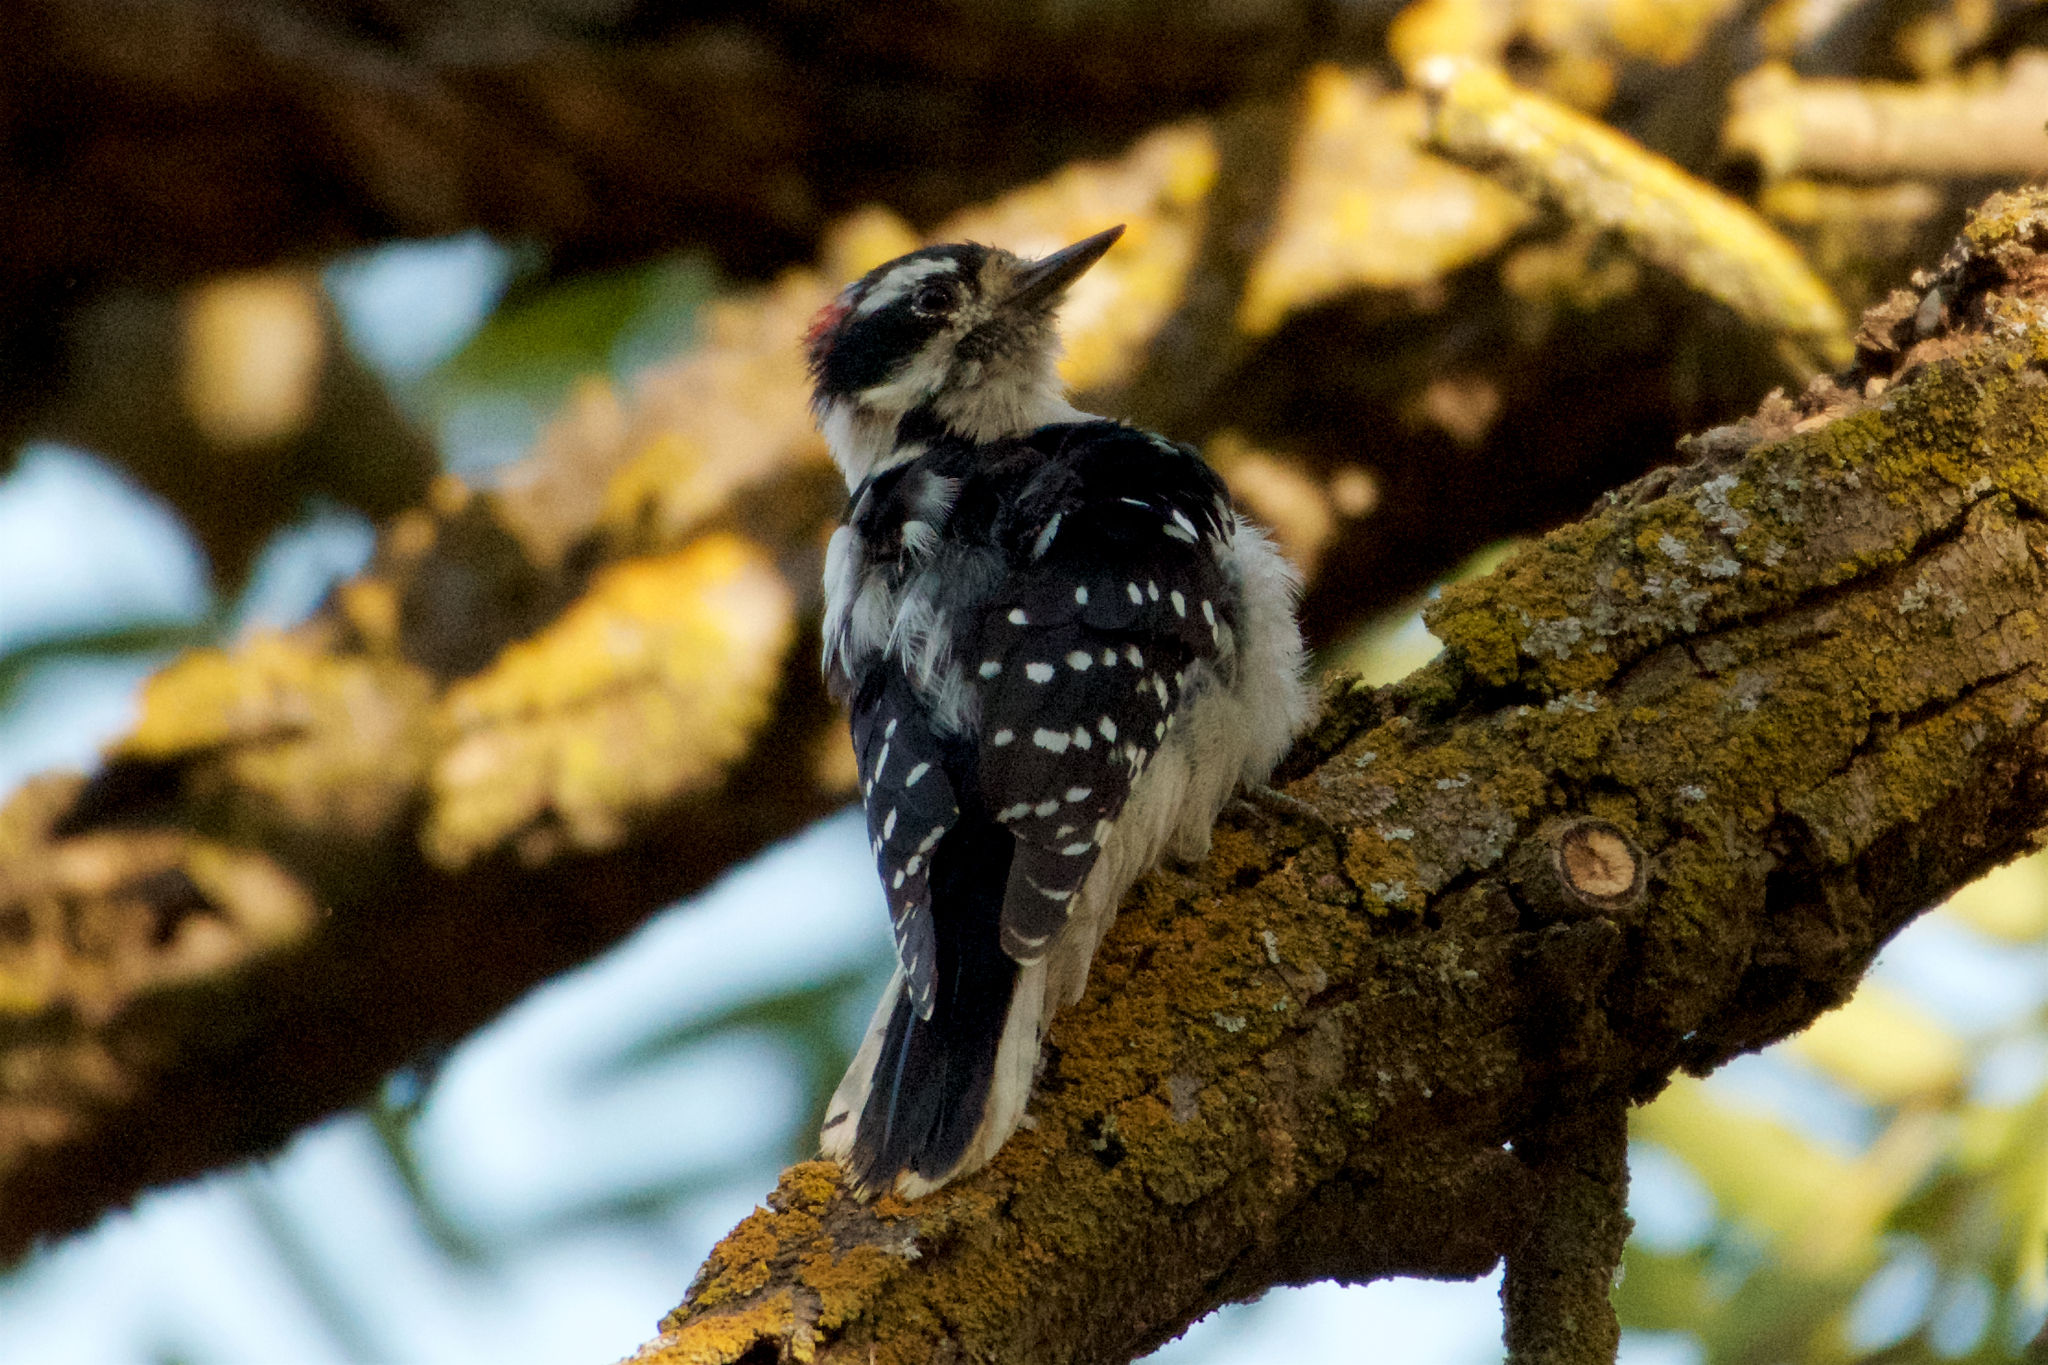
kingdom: Animalia
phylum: Chordata
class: Aves
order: Piciformes
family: Picidae
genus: Dryobates
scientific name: Dryobates pubescens
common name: Downy woodpecker
